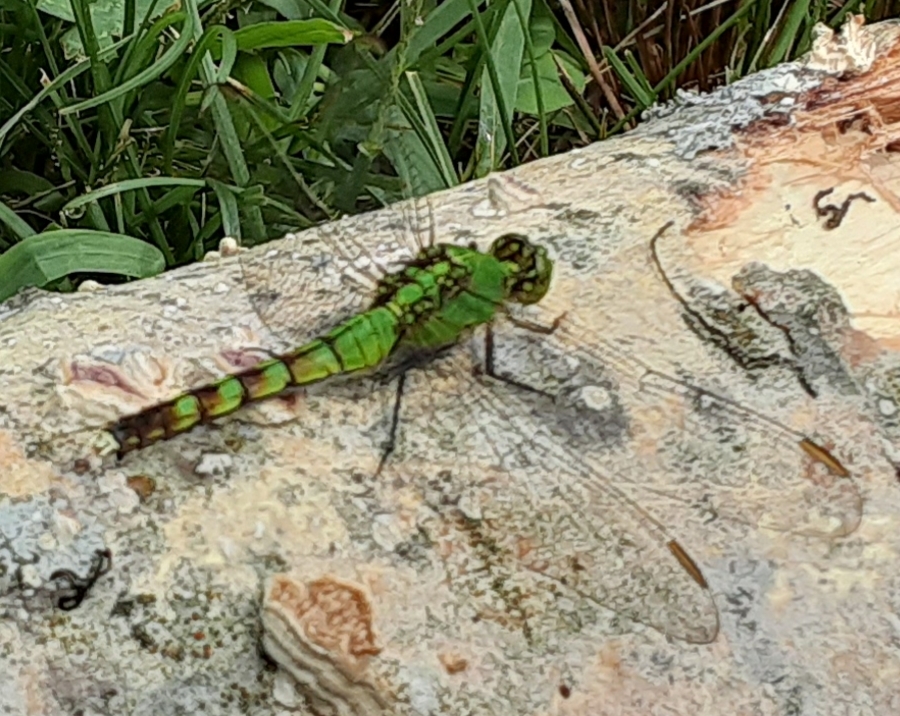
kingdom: Animalia
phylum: Arthropoda
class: Insecta
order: Odonata
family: Libellulidae
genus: Erythemis
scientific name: Erythemis simplicicollis
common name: Eastern pondhawk
